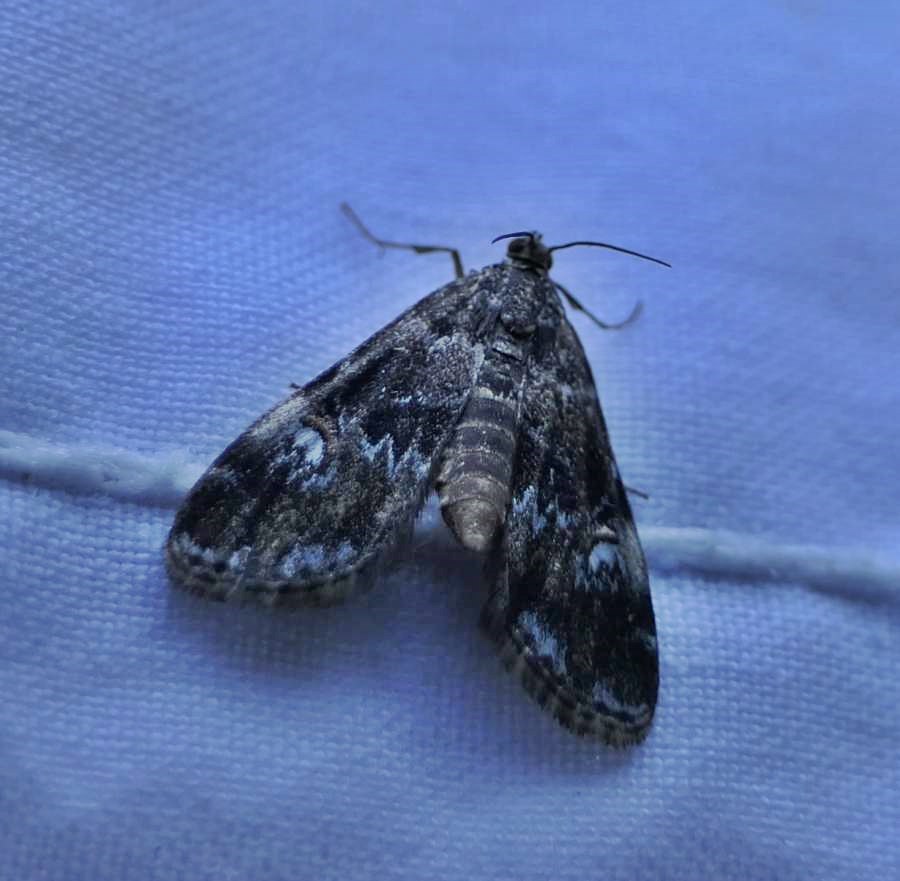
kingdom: Animalia
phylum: Arthropoda
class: Insecta
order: Lepidoptera
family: Crambidae
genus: Elophila
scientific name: Elophila obliteralis
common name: Waterlily leafcutter moth
